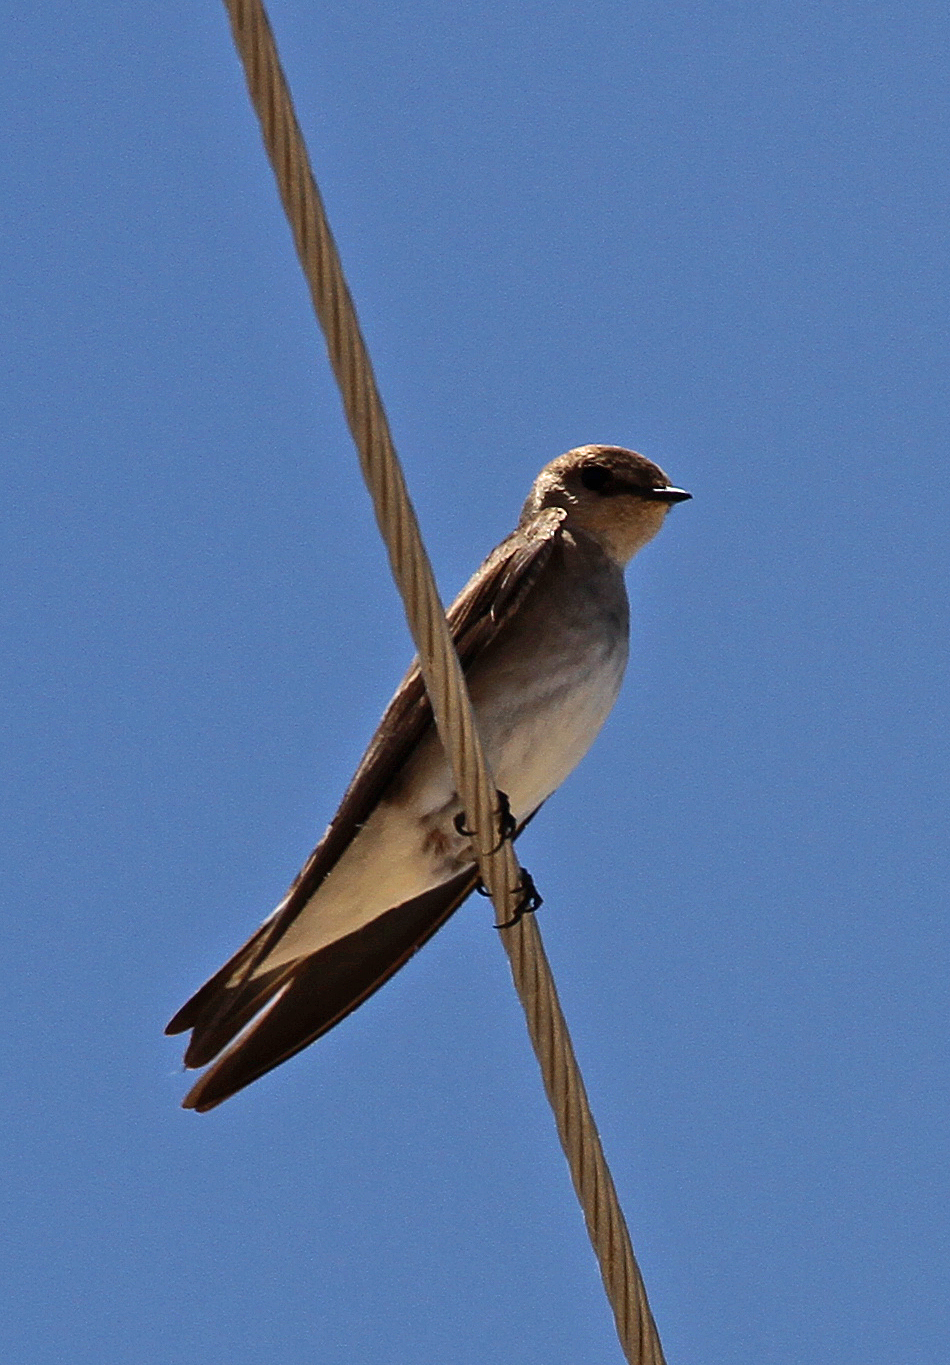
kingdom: Animalia
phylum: Chordata
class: Aves
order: Passeriformes
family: Hirundinidae
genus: Stelgidopteryx
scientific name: Stelgidopteryx serripennis
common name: Northern rough-winged swallow
